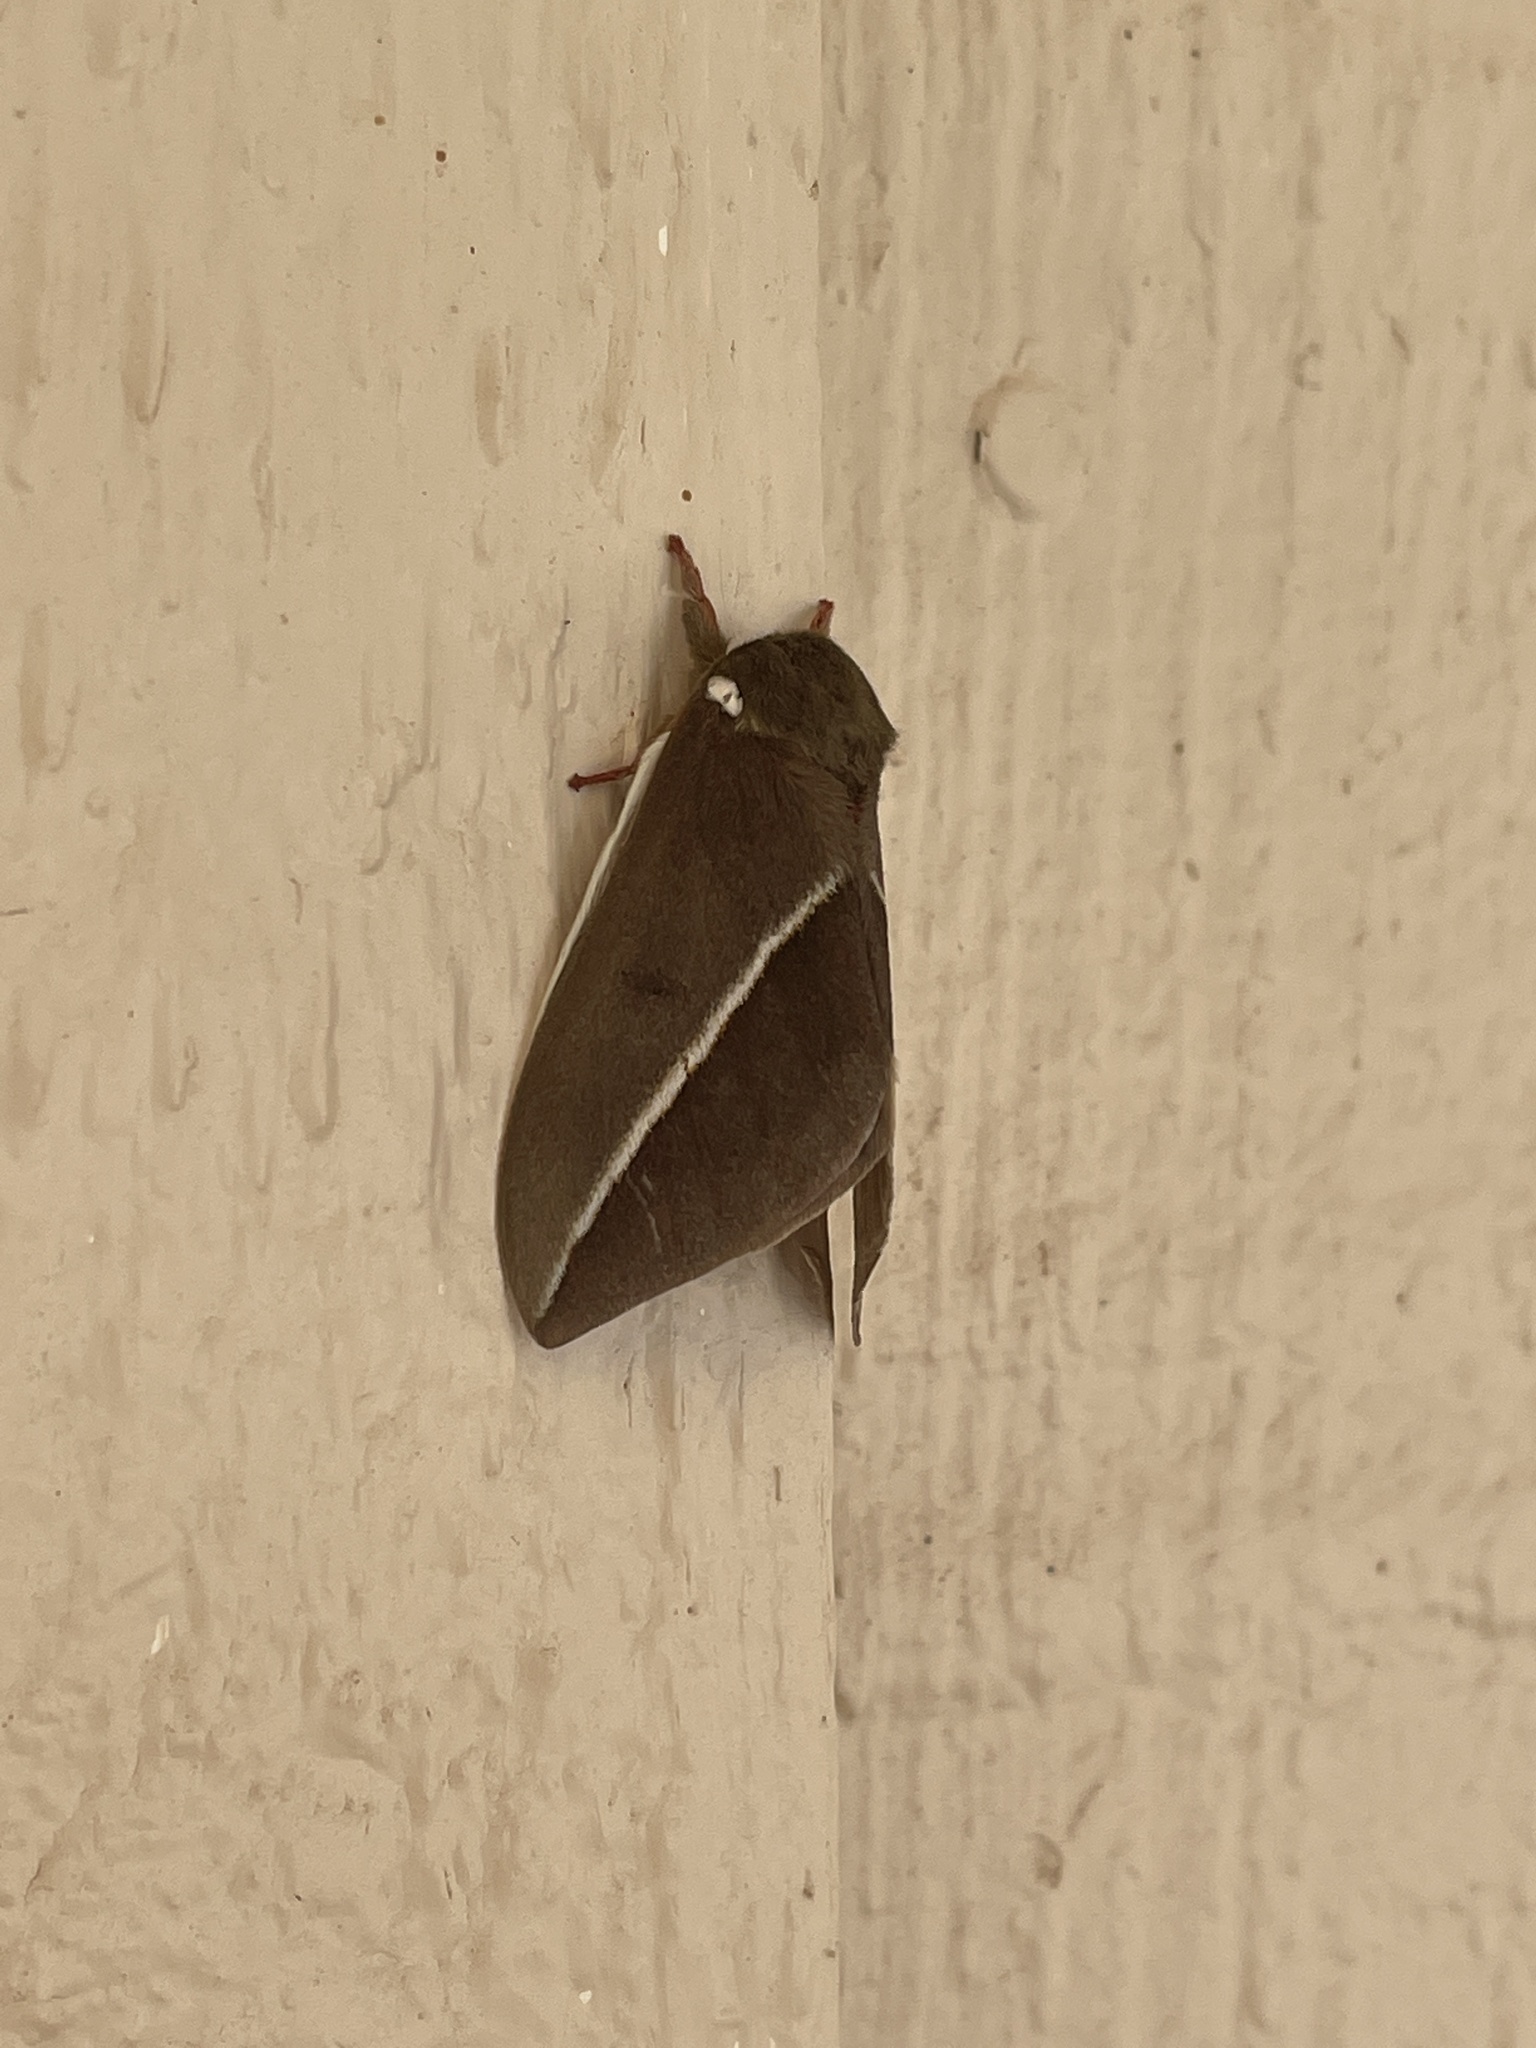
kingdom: Animalia
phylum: Arthropoda
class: Insecta
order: Lepidoptera
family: Saturniidae
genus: Automeris
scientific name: Automeris zephyria
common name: Zephyr eyed silkmoth
